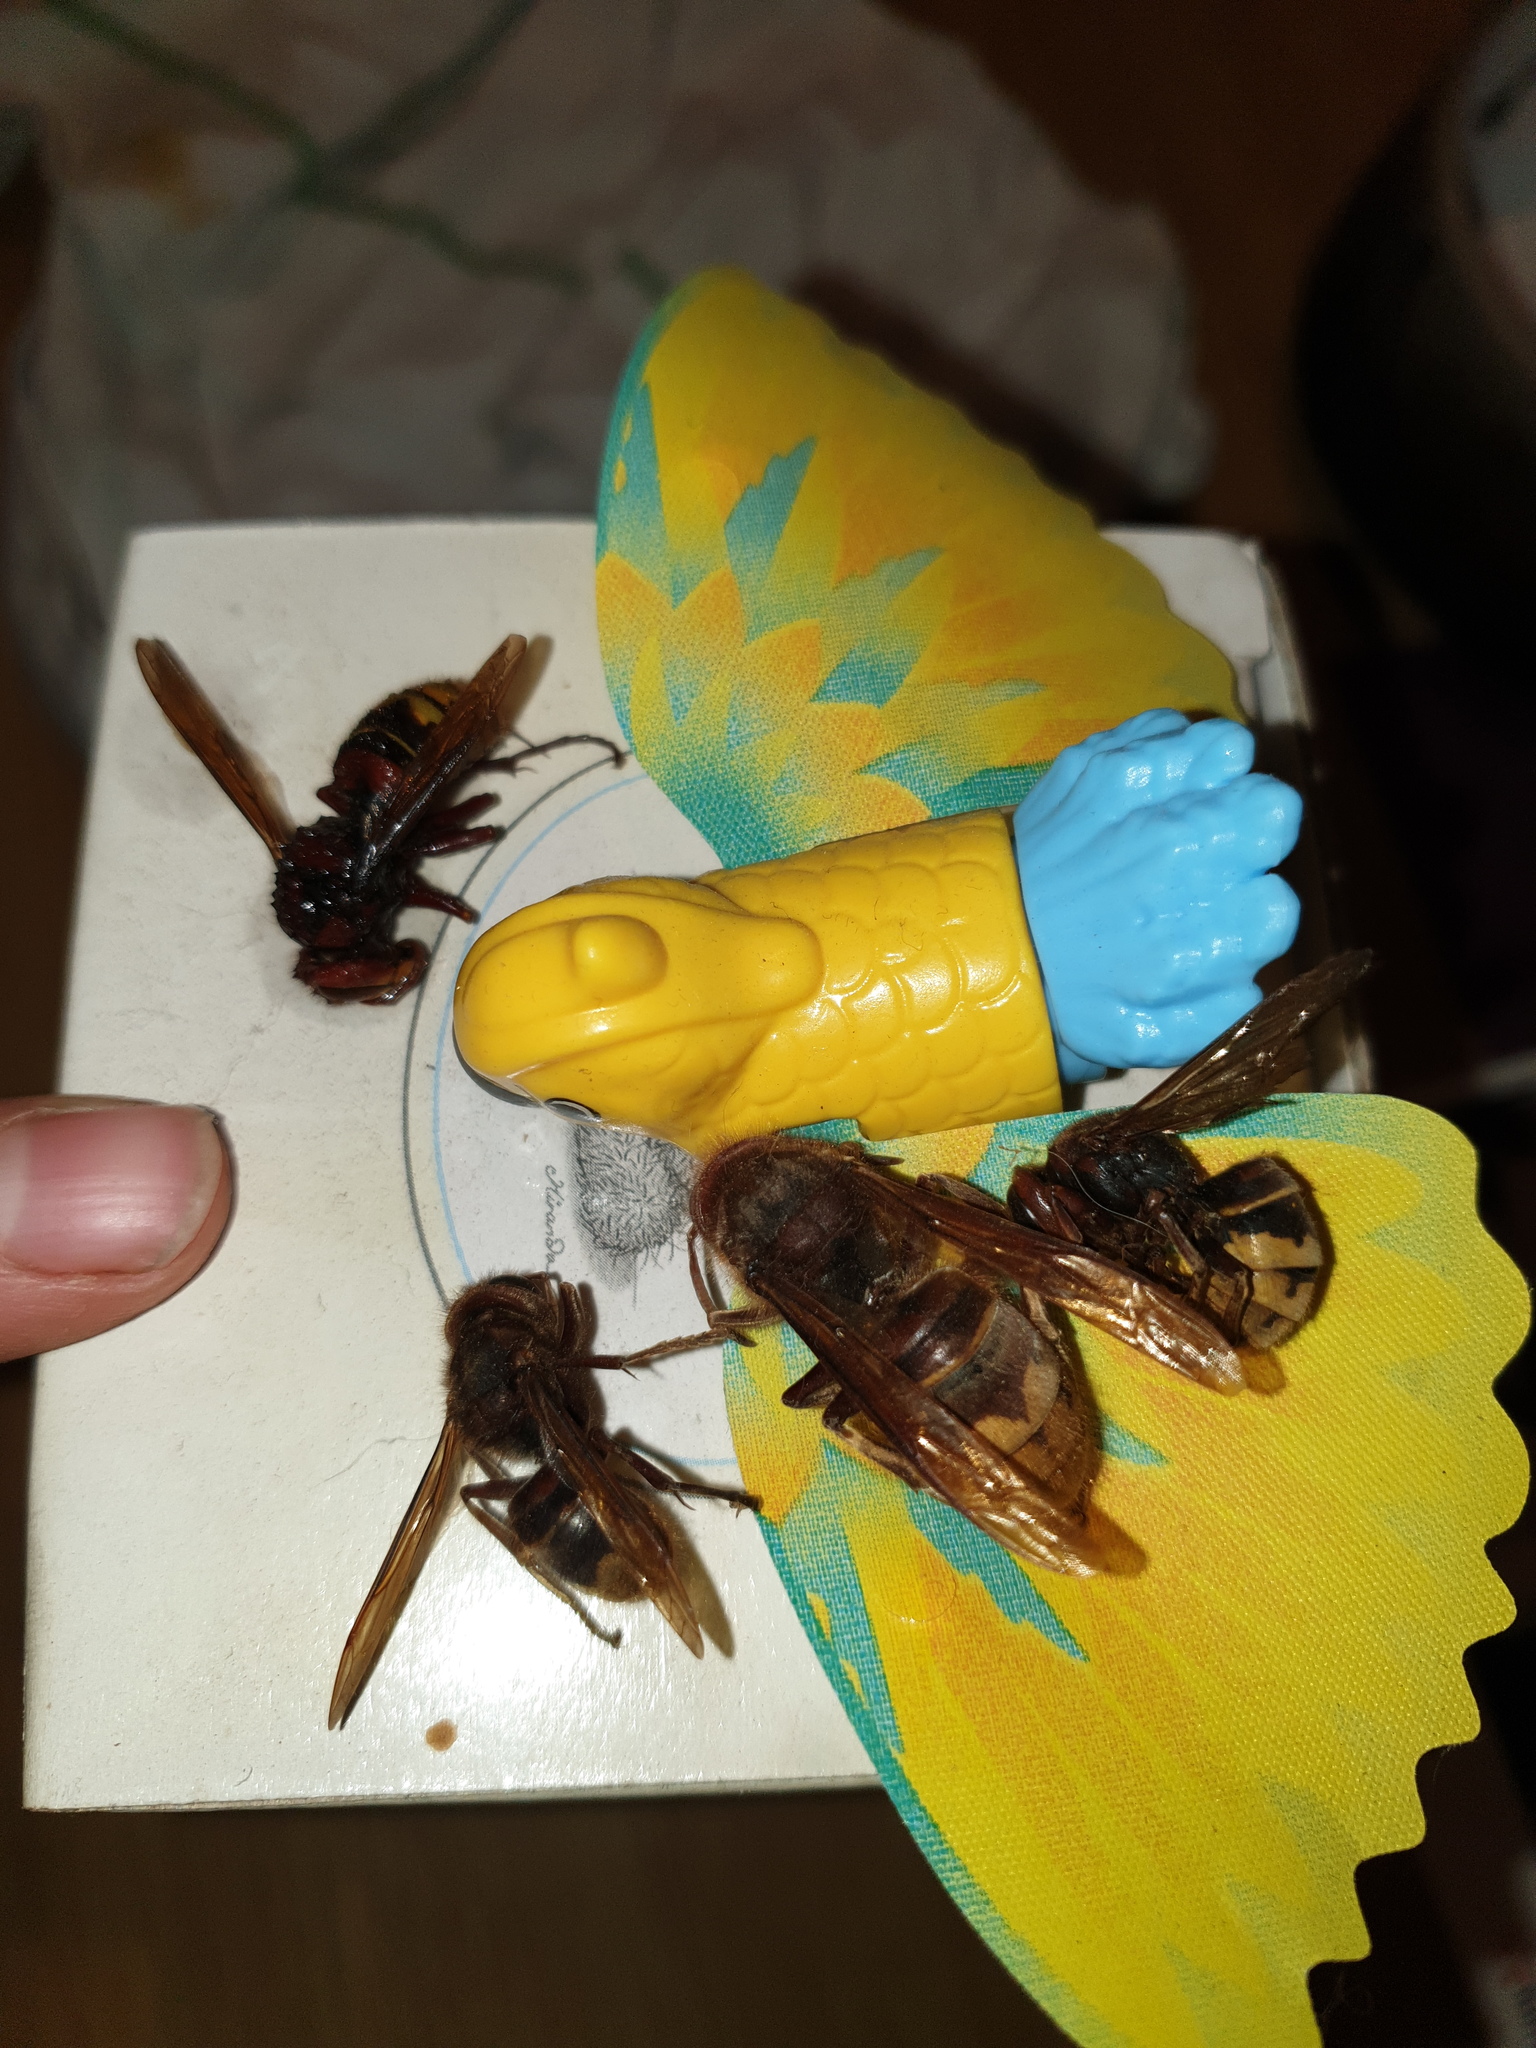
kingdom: Animalia
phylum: Arthropoda
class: Insecta
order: Hymenoptera
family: Vespidae
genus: Vespa
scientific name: Vespa crabro
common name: Hornet
